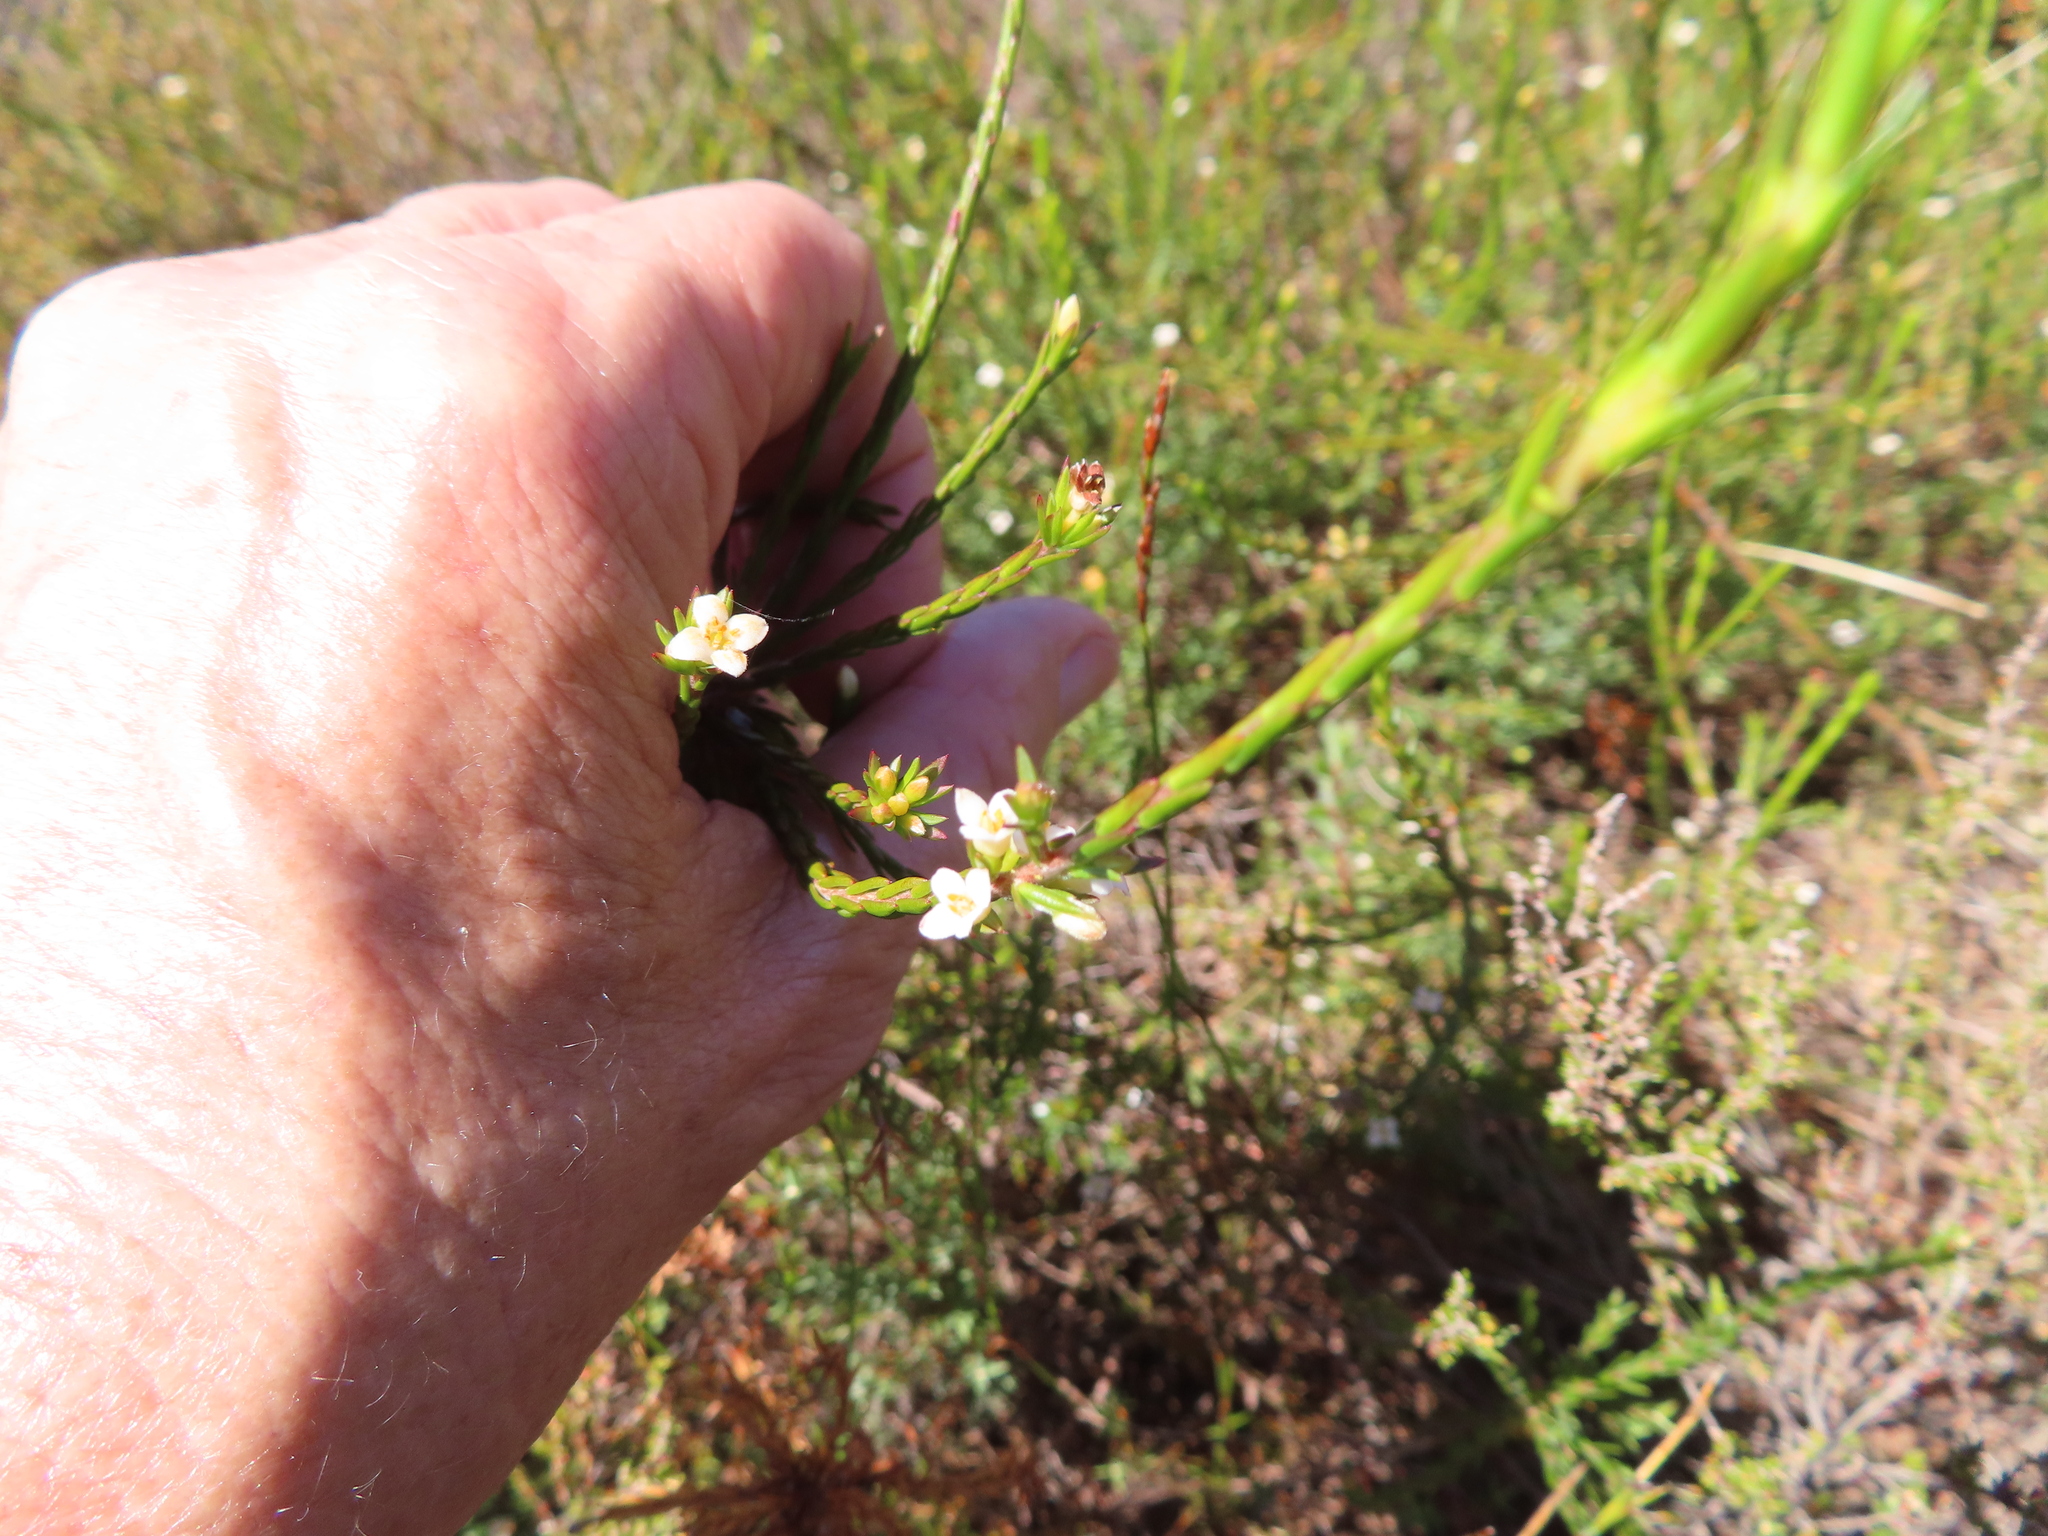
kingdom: Plantae
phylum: Tracheophyta
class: Magnoliopsida
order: Malvales
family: Thymelaeaceae
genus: Lachnaea
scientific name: Lachnaea axillaris
